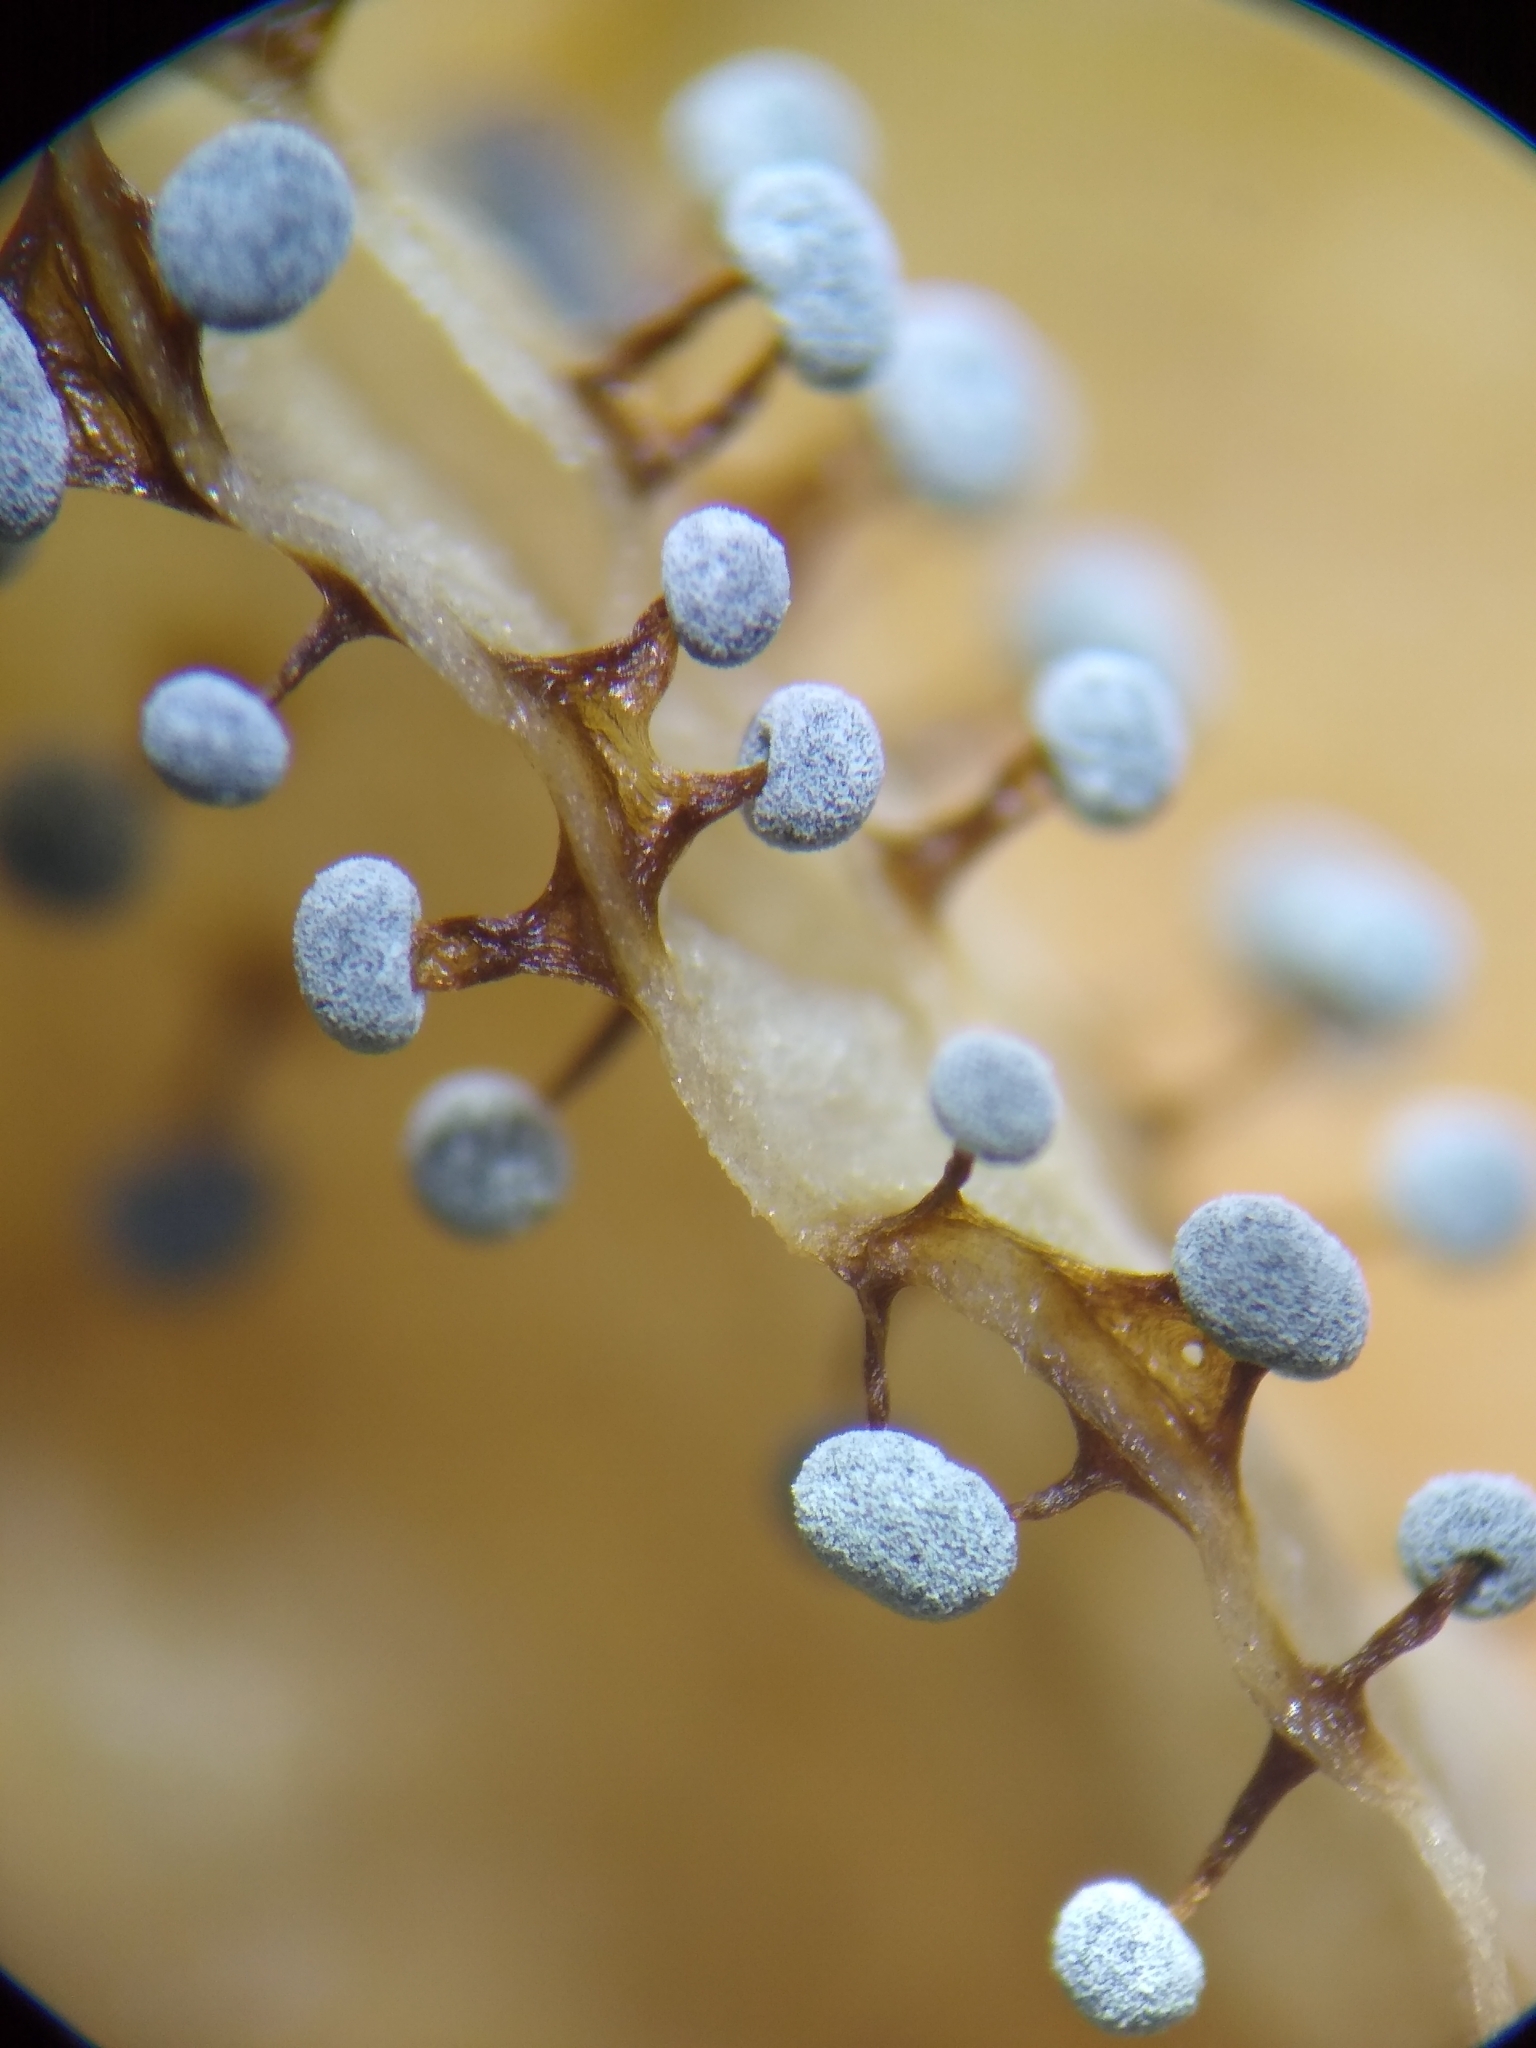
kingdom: Protozoa
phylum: Mycetozoa
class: Myxomycetes
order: Physarales
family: Didymiaceae
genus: Didymium
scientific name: Didymium verrucisporum
